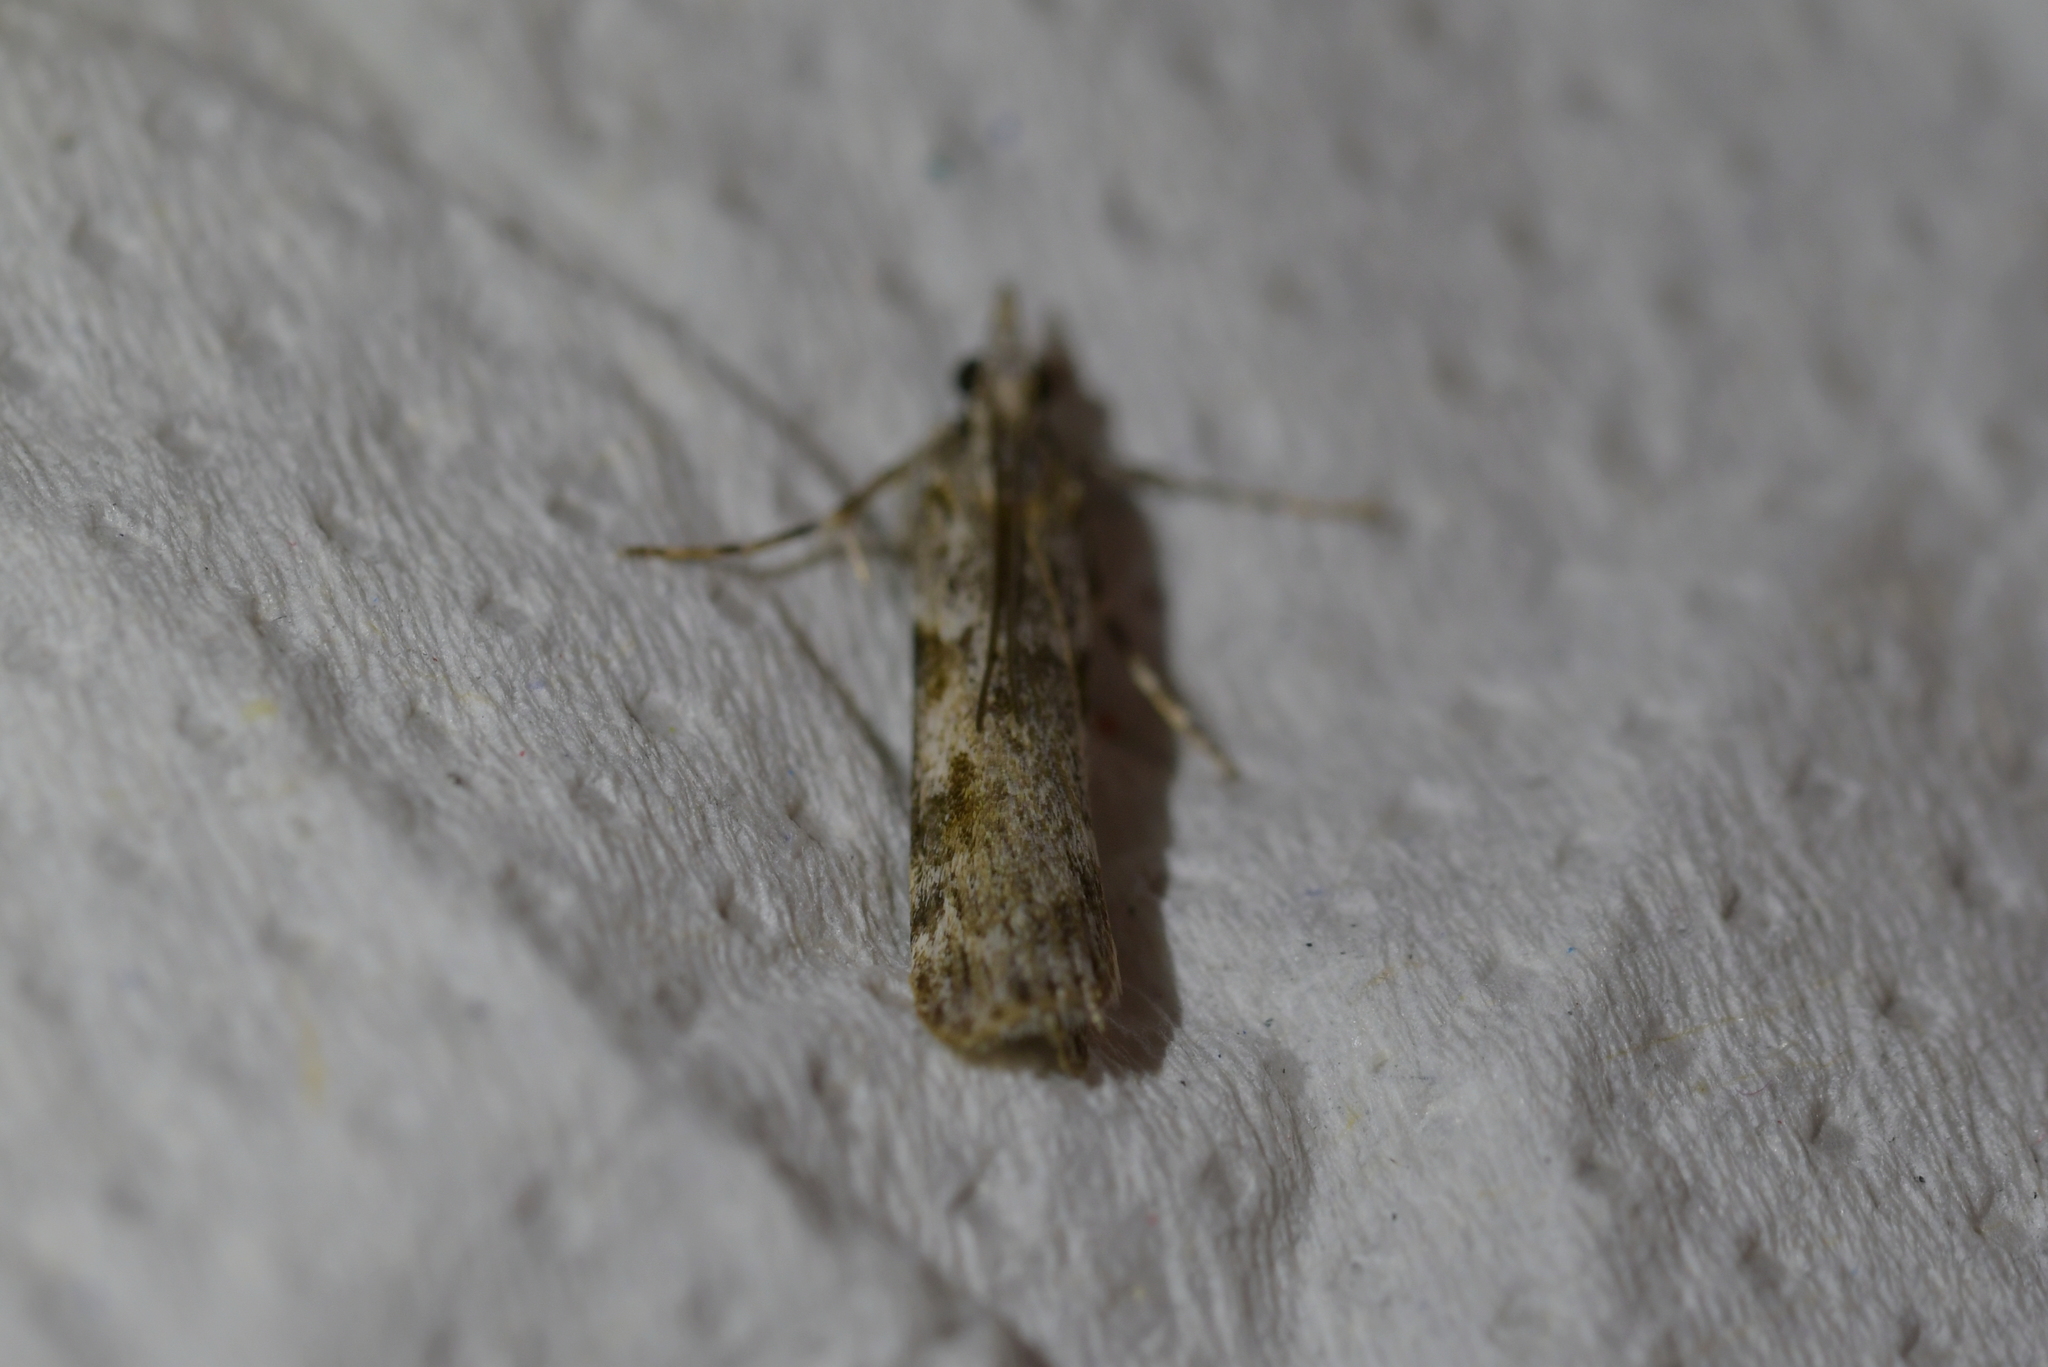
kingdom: Animalia
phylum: Arthropoda
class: Insecta
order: Lepidoptera
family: Crambidae
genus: Scoparia
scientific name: Scoparia halopis
